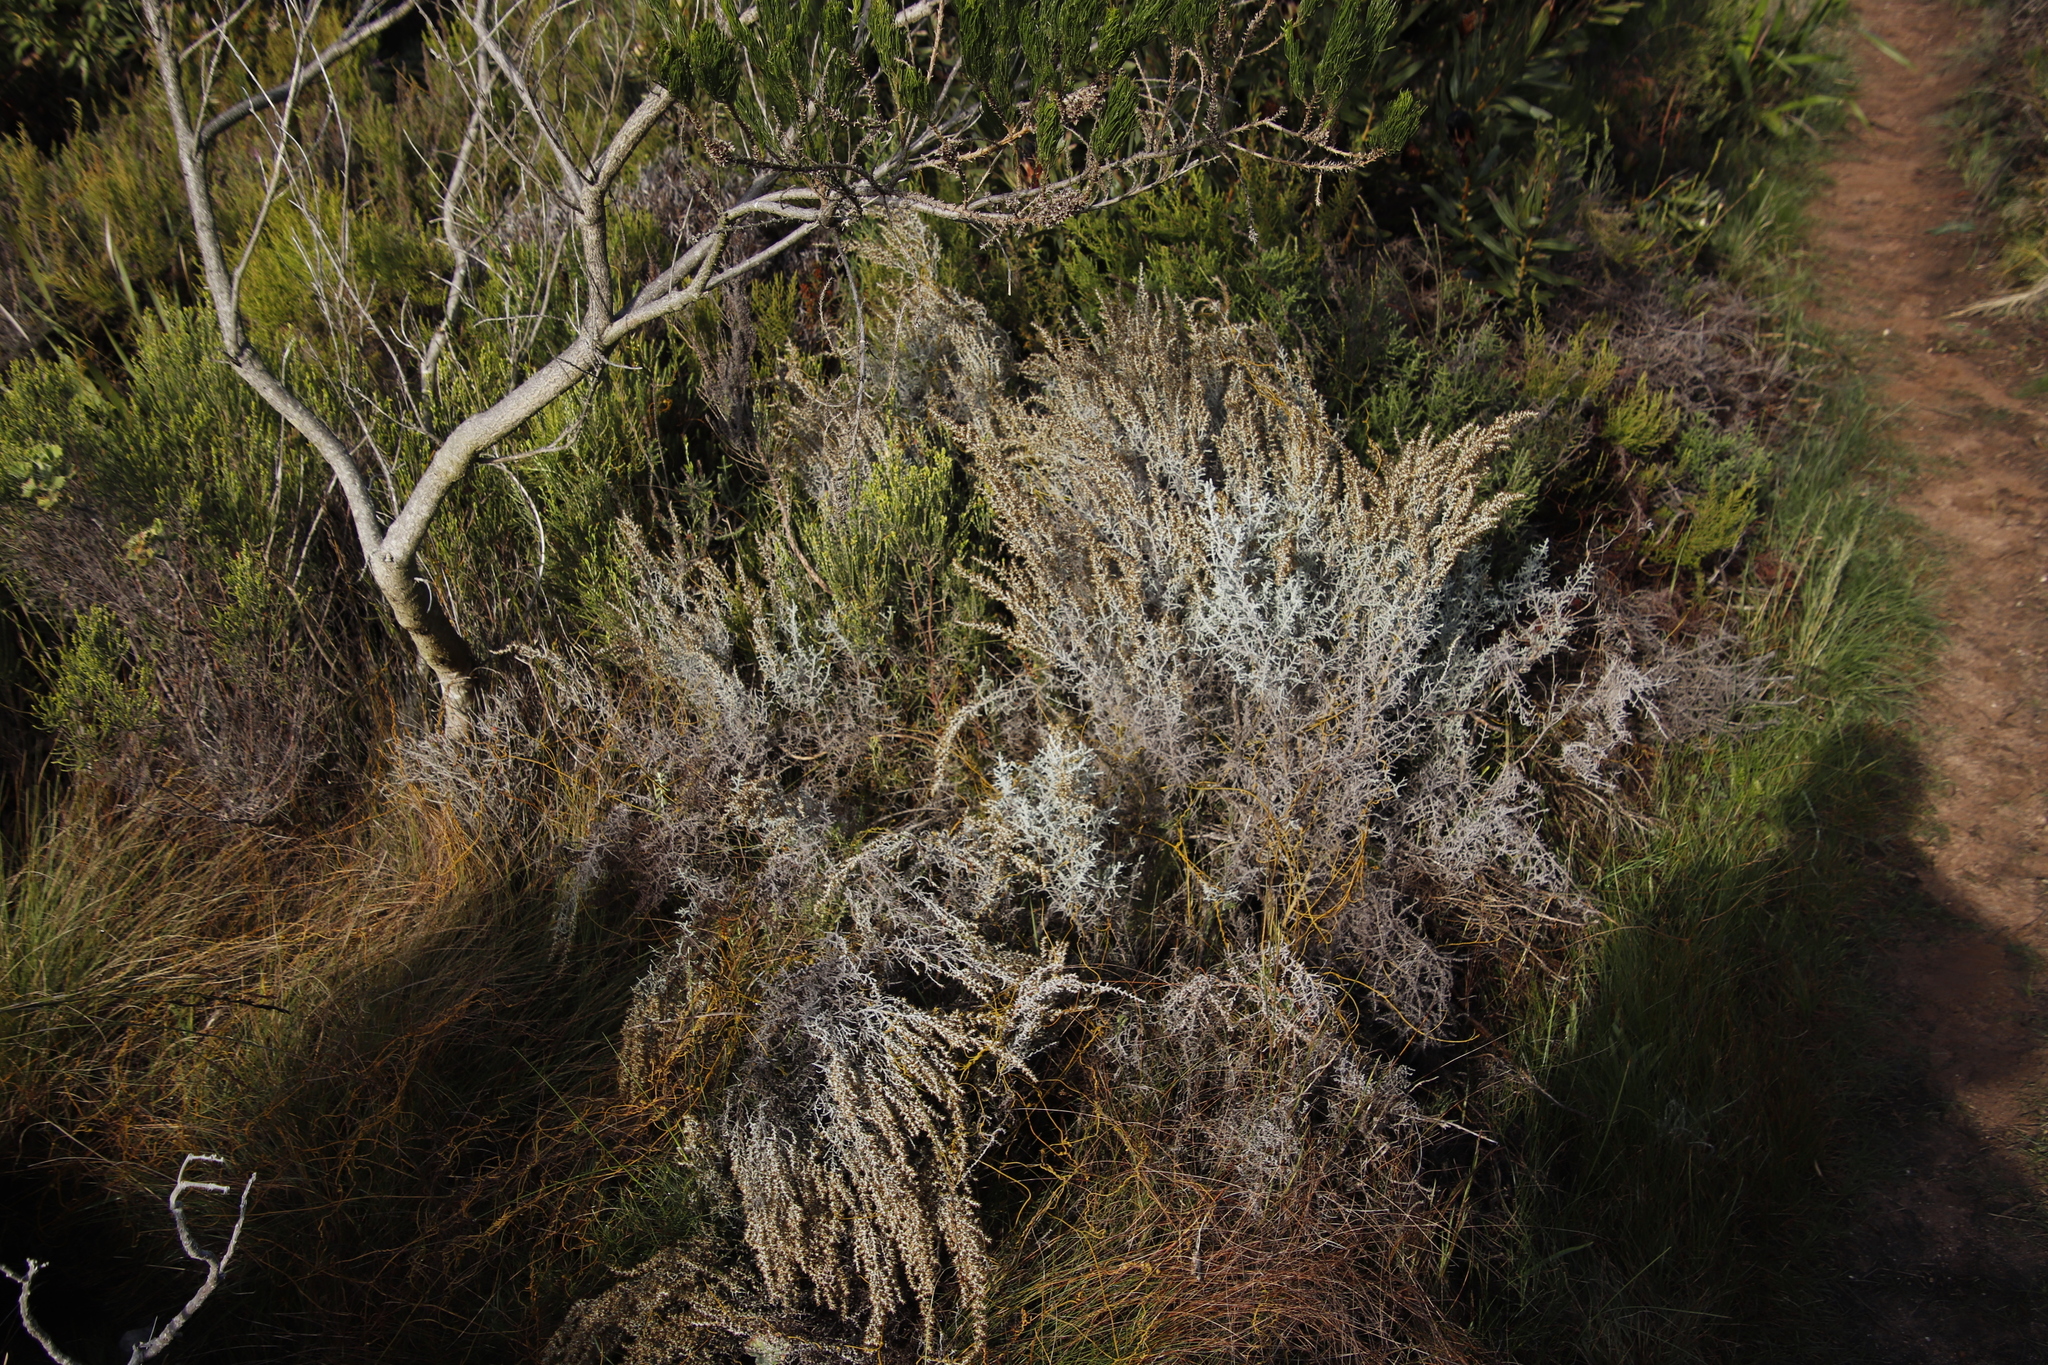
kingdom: Plantae
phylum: Tracheophyta
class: Magnoliopsida
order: Asterales
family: Asteraceae
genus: Seriphium
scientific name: Seriphium plumosum
